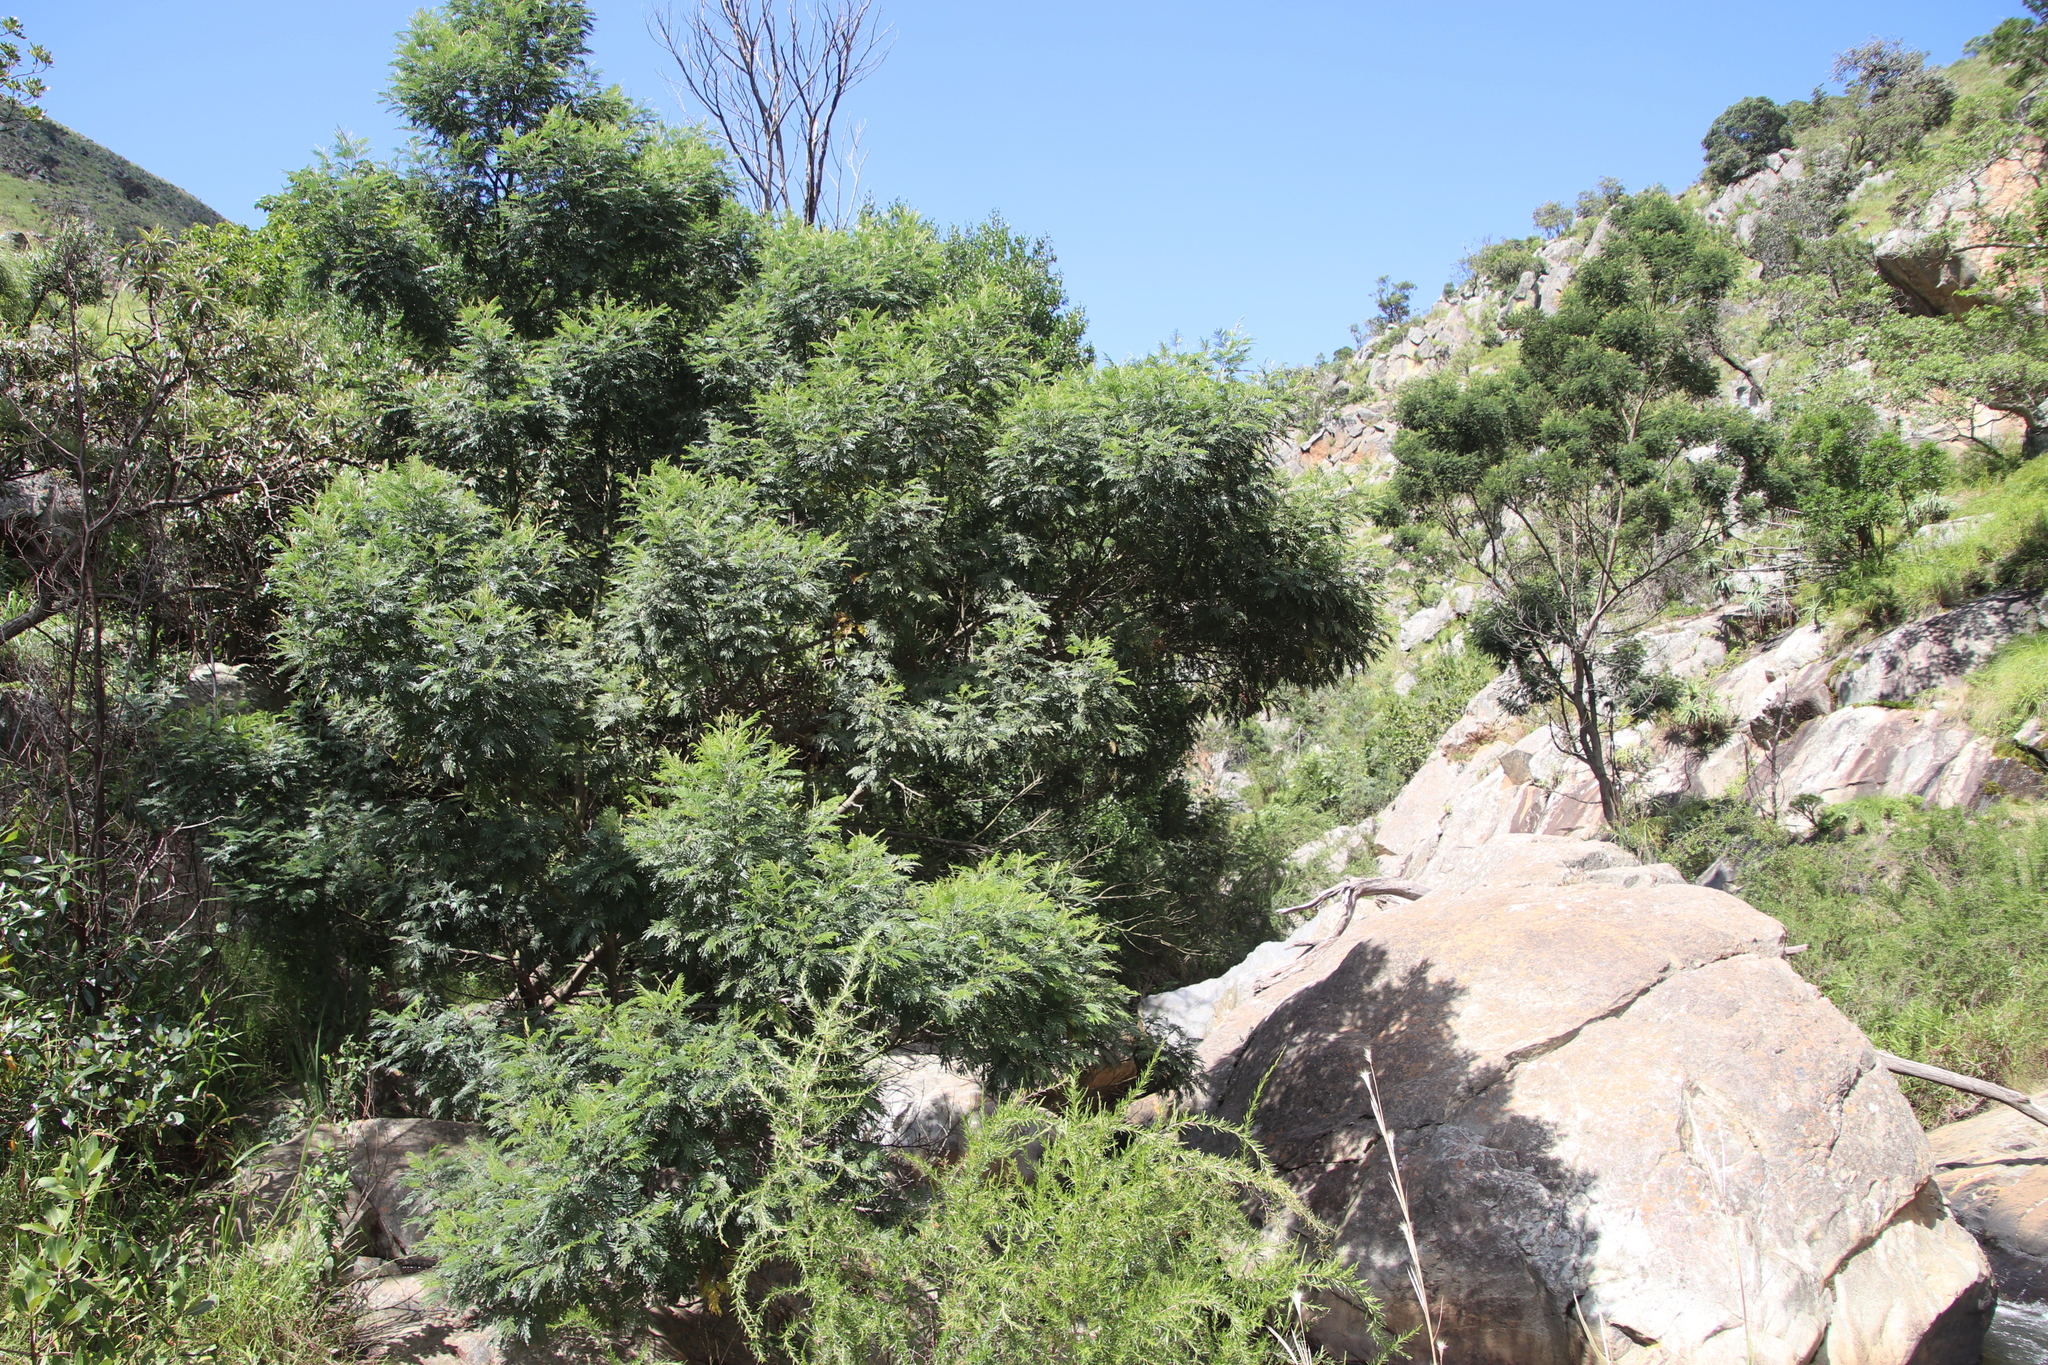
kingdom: Plantae
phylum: Tracheophyta
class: Magnoliopsida
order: Fabales
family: Fabaceae
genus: Acacia
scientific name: Acacia mearnsii
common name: Black wattle
